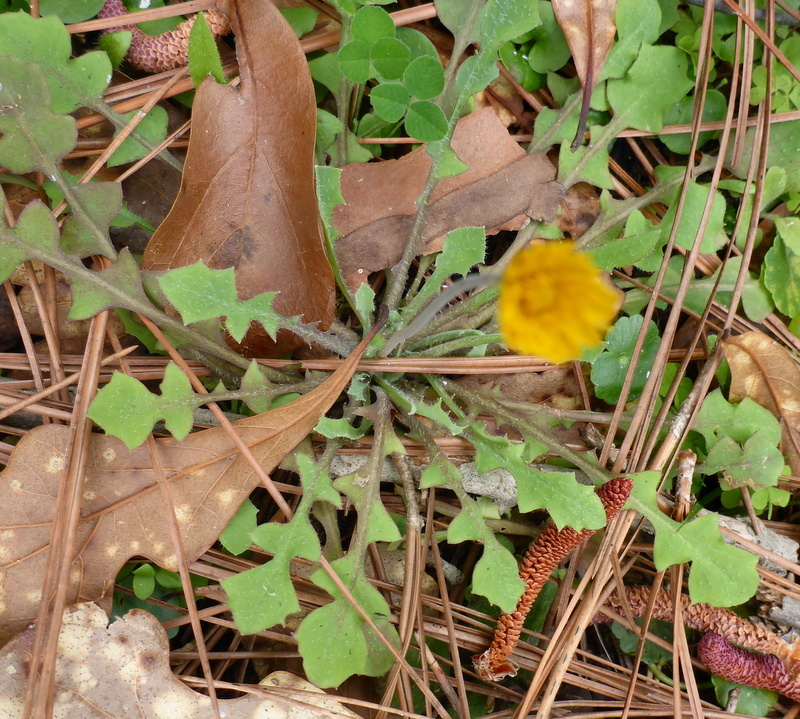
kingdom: Plantae
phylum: Tracheophyta
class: Magnoliopsida
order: Asterales
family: Asteraceae
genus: Krigia
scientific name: Krigia virginica
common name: Virginia dwarf-dandelion
